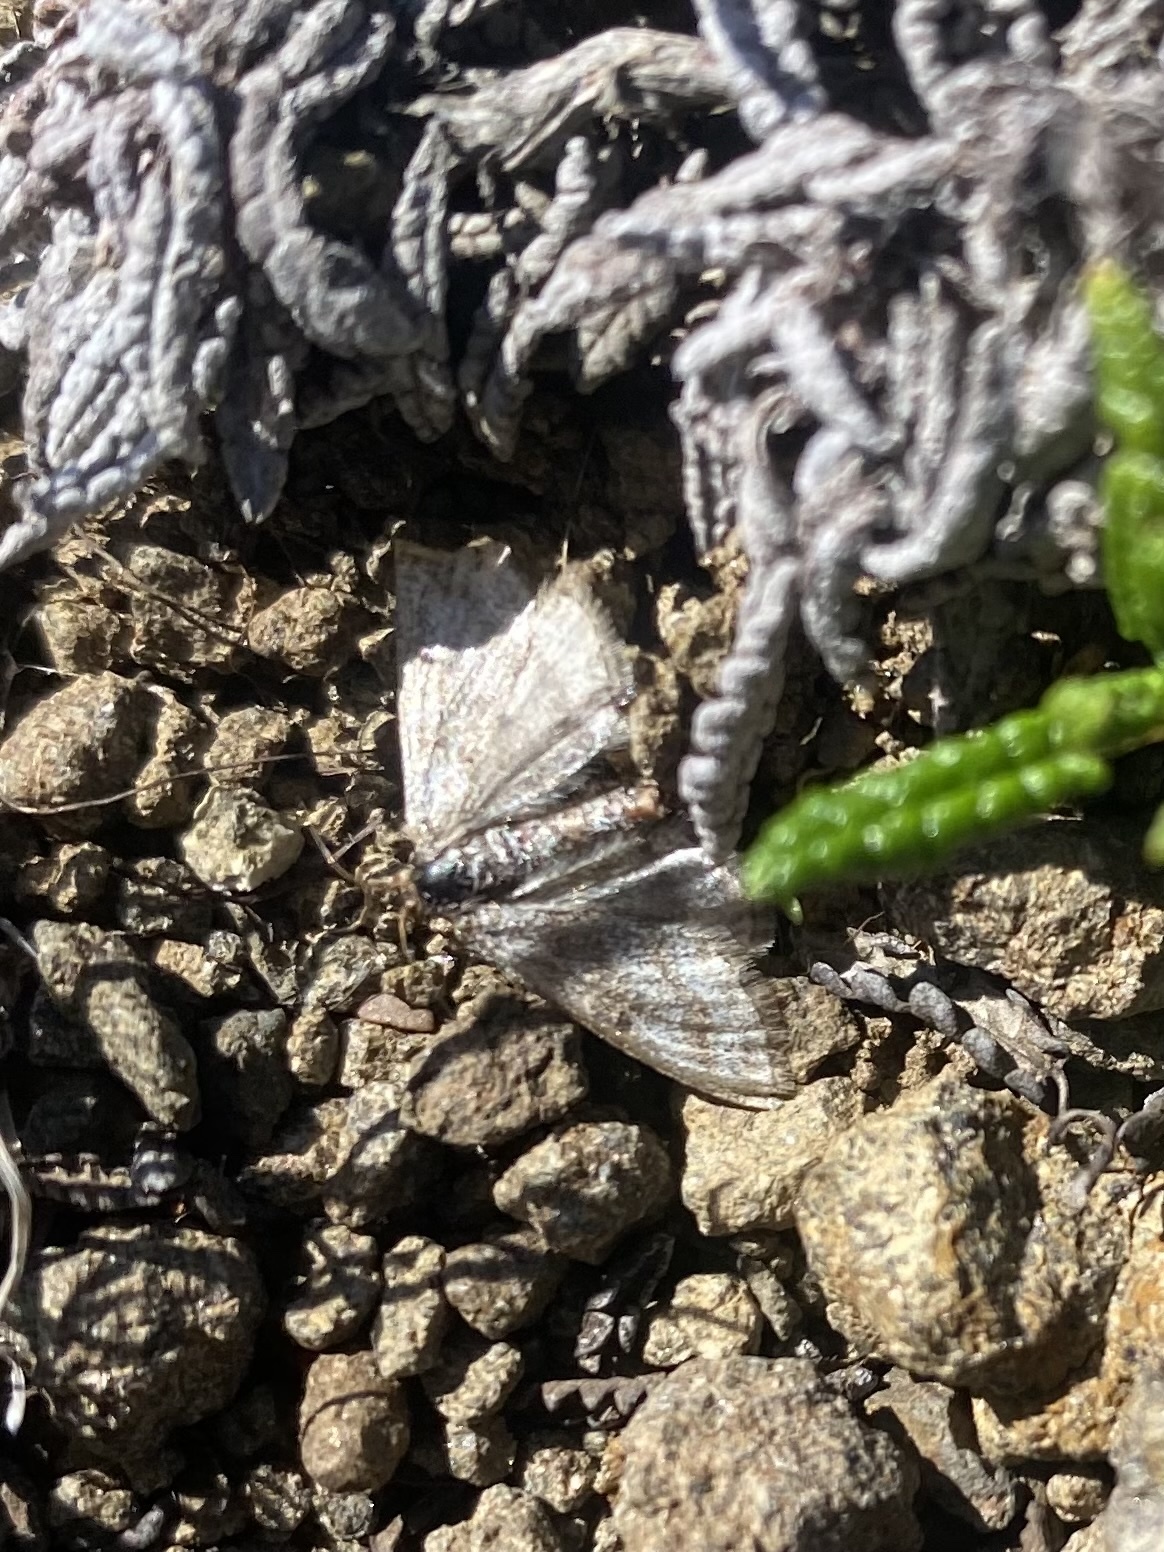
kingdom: Animalia
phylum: Arthropoda
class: Insecta
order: Lepidoptera
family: Geometridae
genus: Scopula
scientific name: Scopula cajanderi
